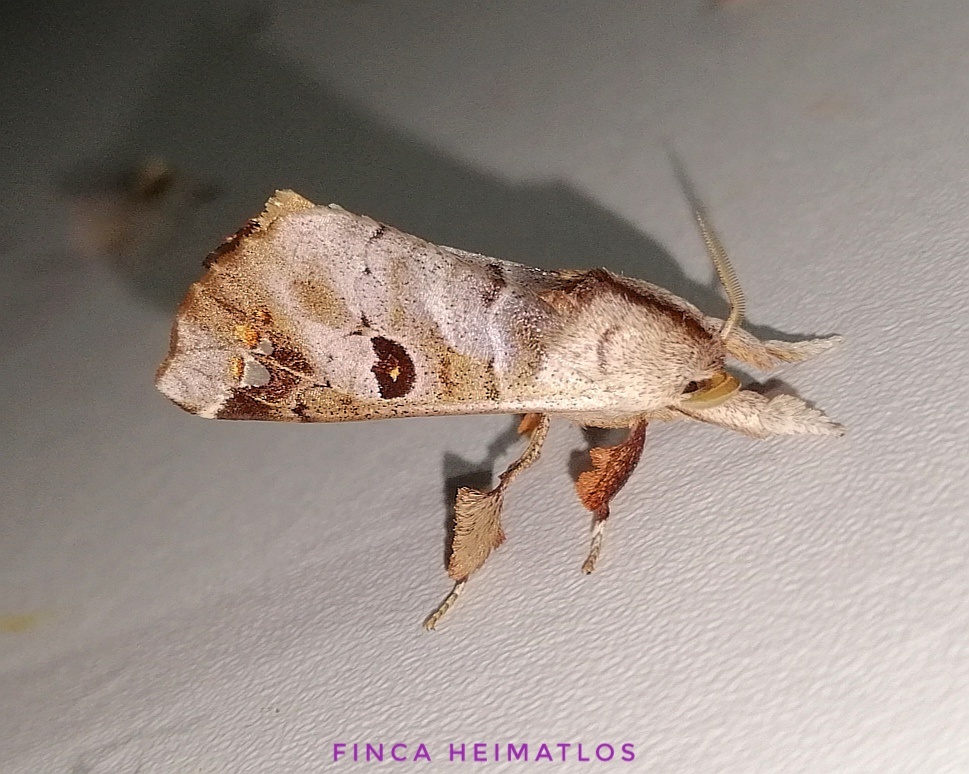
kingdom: Animalia
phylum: Arthropoda
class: Insecta
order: Lepidoptera
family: Apatelodidae
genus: Pantelodes
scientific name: Pantelodes maranhensis
